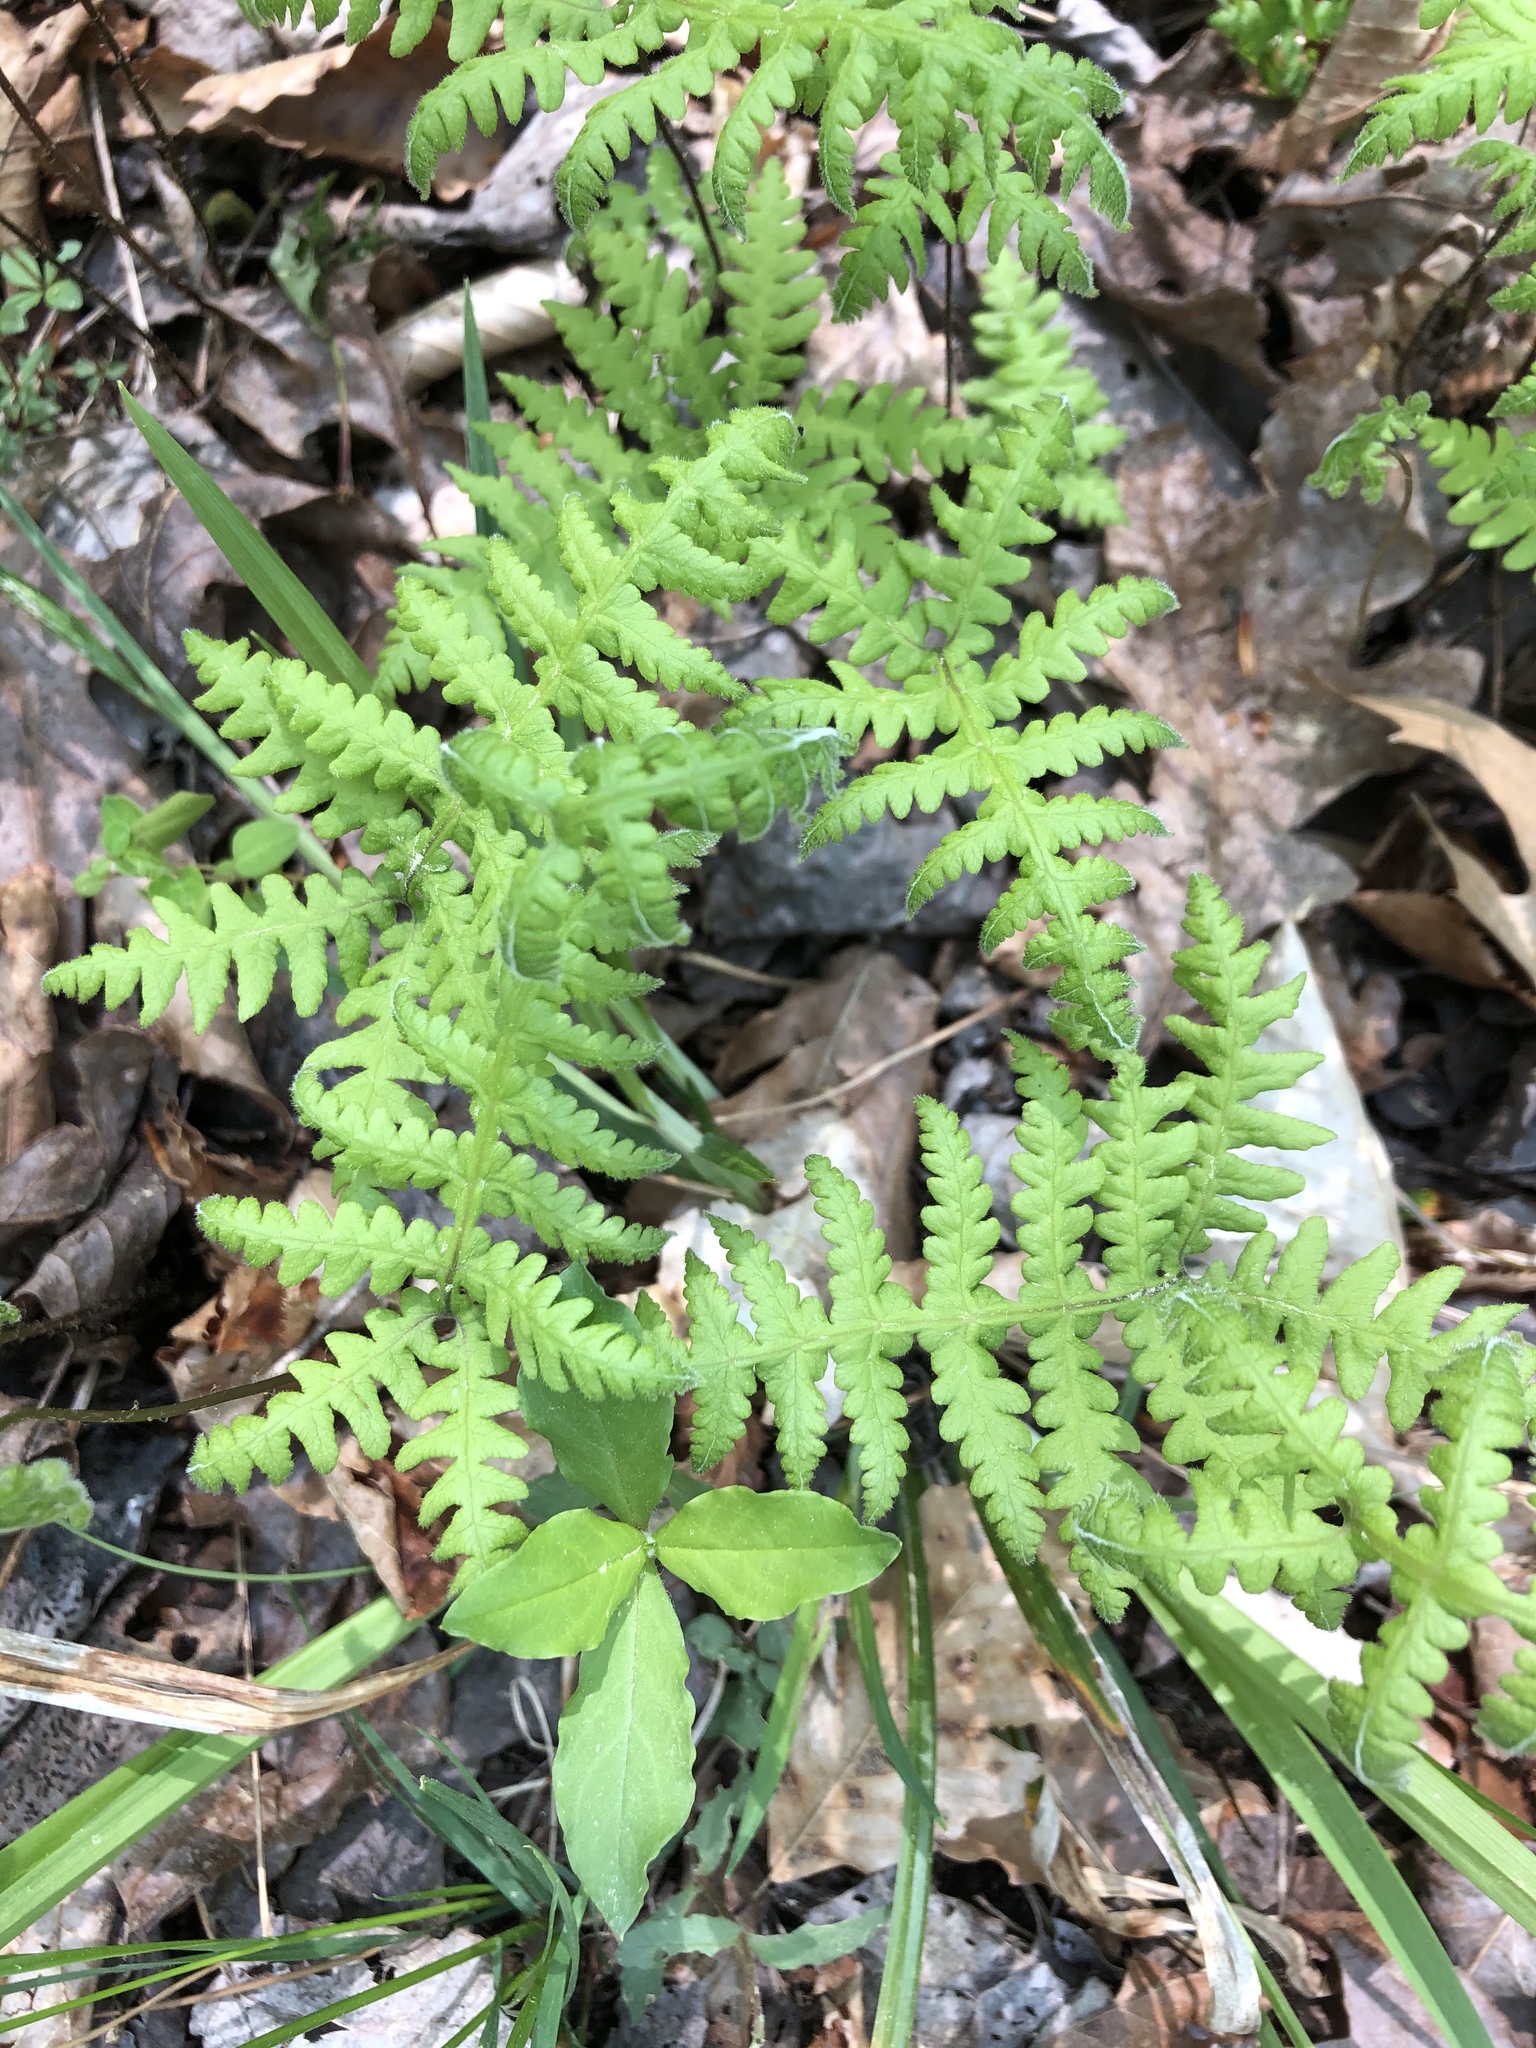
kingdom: Plantae
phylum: Tracheophyta
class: Polypodiopsida
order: Polypodiales
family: Thelypteridaceae
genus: Phegopteris
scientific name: Phegopteris hexagonoptera
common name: Broad beech fern
